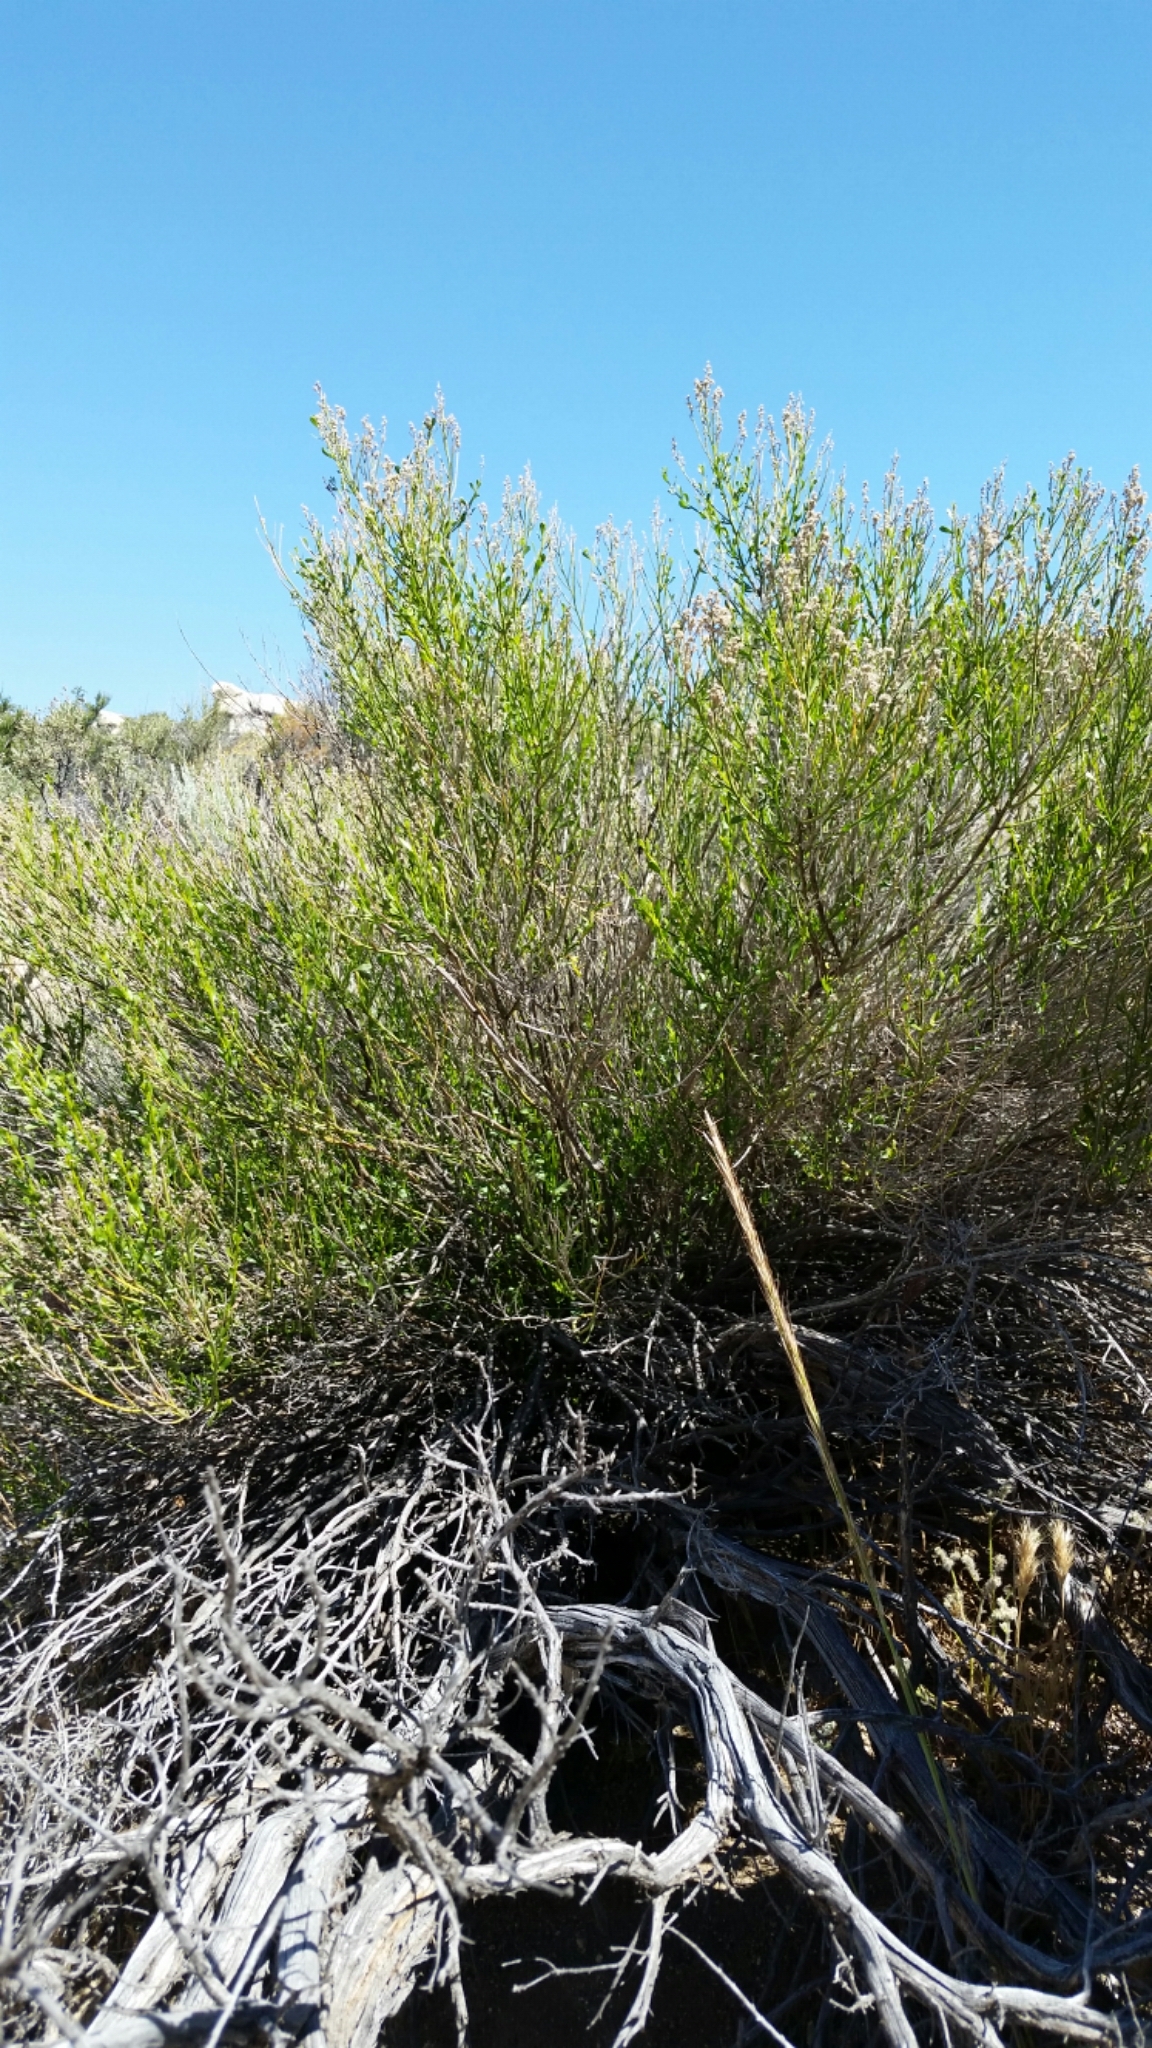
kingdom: Plantae
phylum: Tracheophyta
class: Magnoliopsida
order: Asterales
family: Asteraceae
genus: Baccharis
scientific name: Baccharis sergiloides
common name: Desert baccharis
